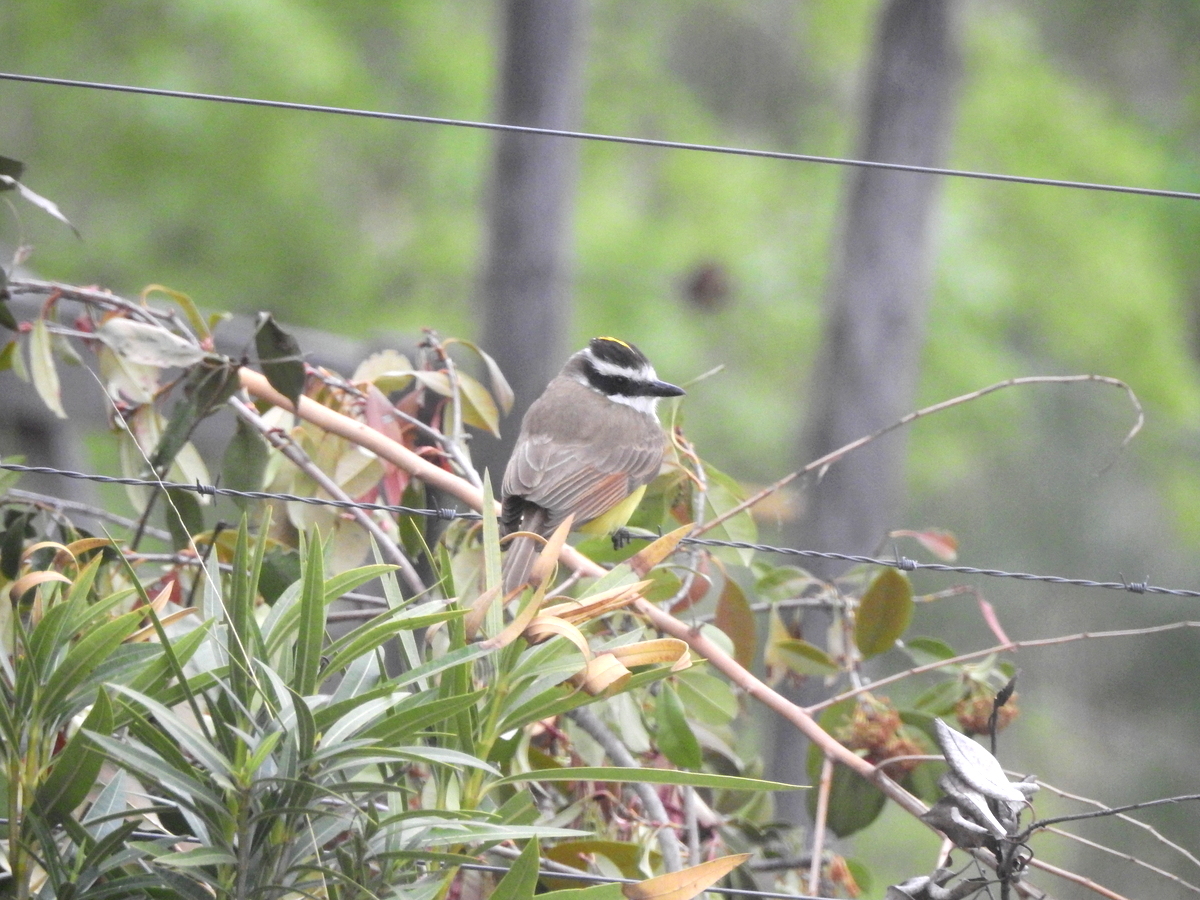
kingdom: Animalia
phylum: Chordata
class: Aves
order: Passeriformes
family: Tyrannidae
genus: Pitangus
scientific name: Pitangus sulphuratus
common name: Great kiskadee
